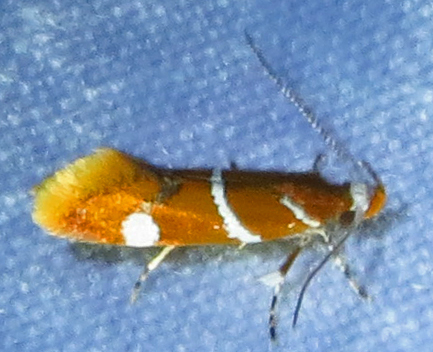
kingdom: Animalia
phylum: Arthropoda
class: Insecta
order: Lepidoptera
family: Oecophoridae
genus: Promalactis
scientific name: Promalactis suzukiella
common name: Moth
